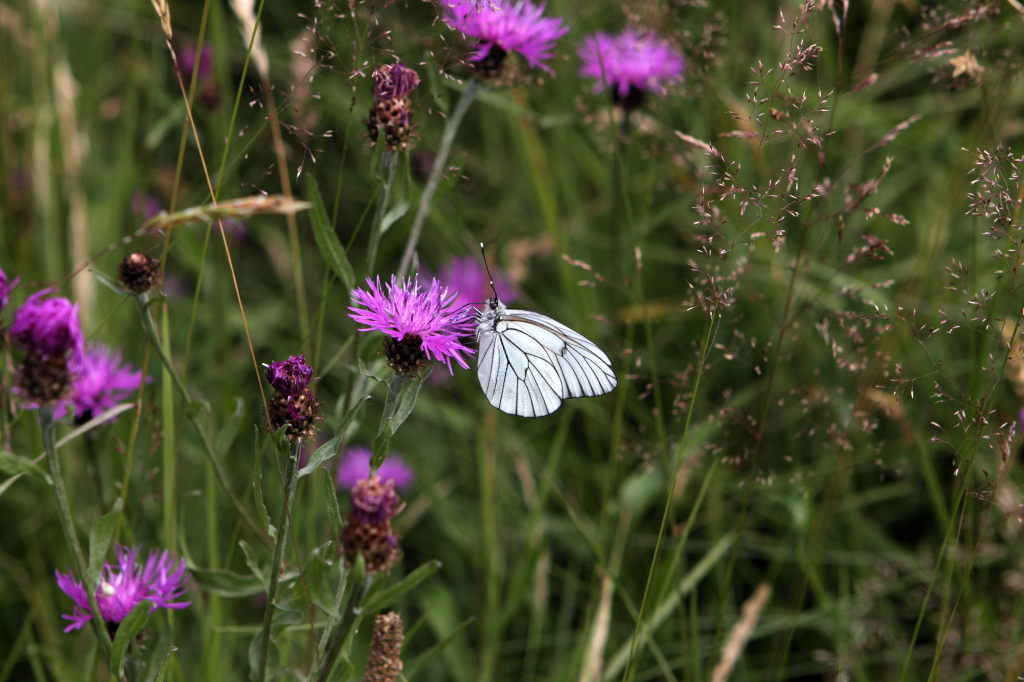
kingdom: Animalia
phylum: Arthropoda
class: Insecta
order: Lepidoptera
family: Pieridae
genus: Aporia
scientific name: Aporia crataegi
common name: Black-veined white
